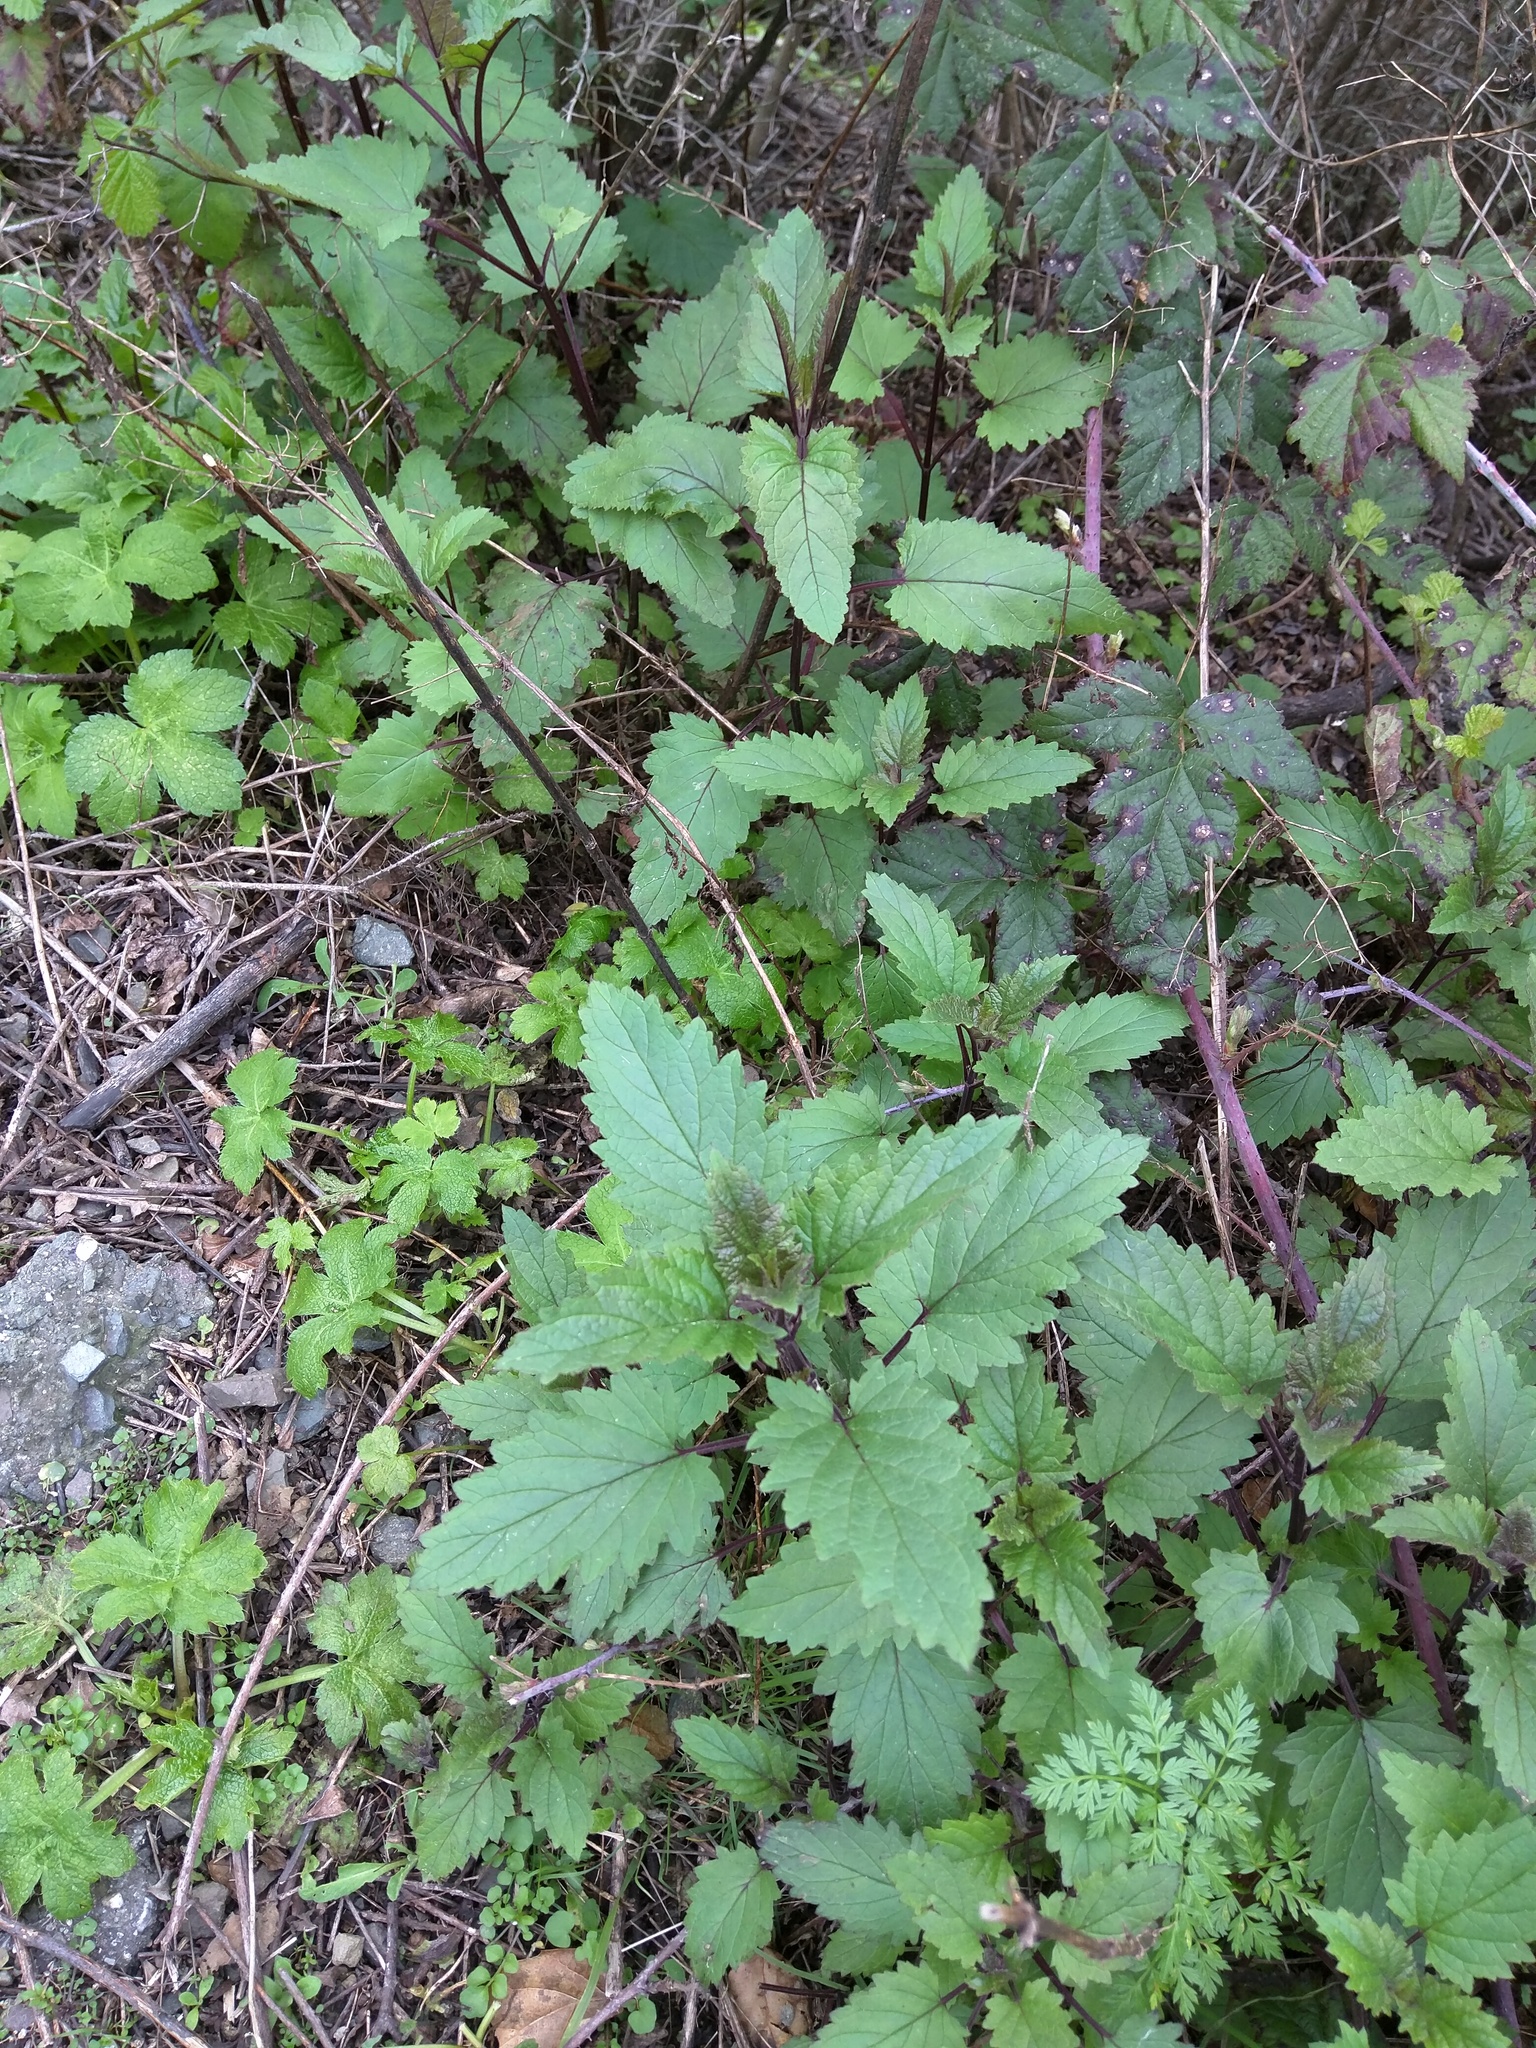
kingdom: Plantae
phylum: Tracheophyta
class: Magnoliopsida
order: Lamiales
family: Scrophulariaceae
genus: Scrophularia
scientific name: Scrophularia californica
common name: California figwort
